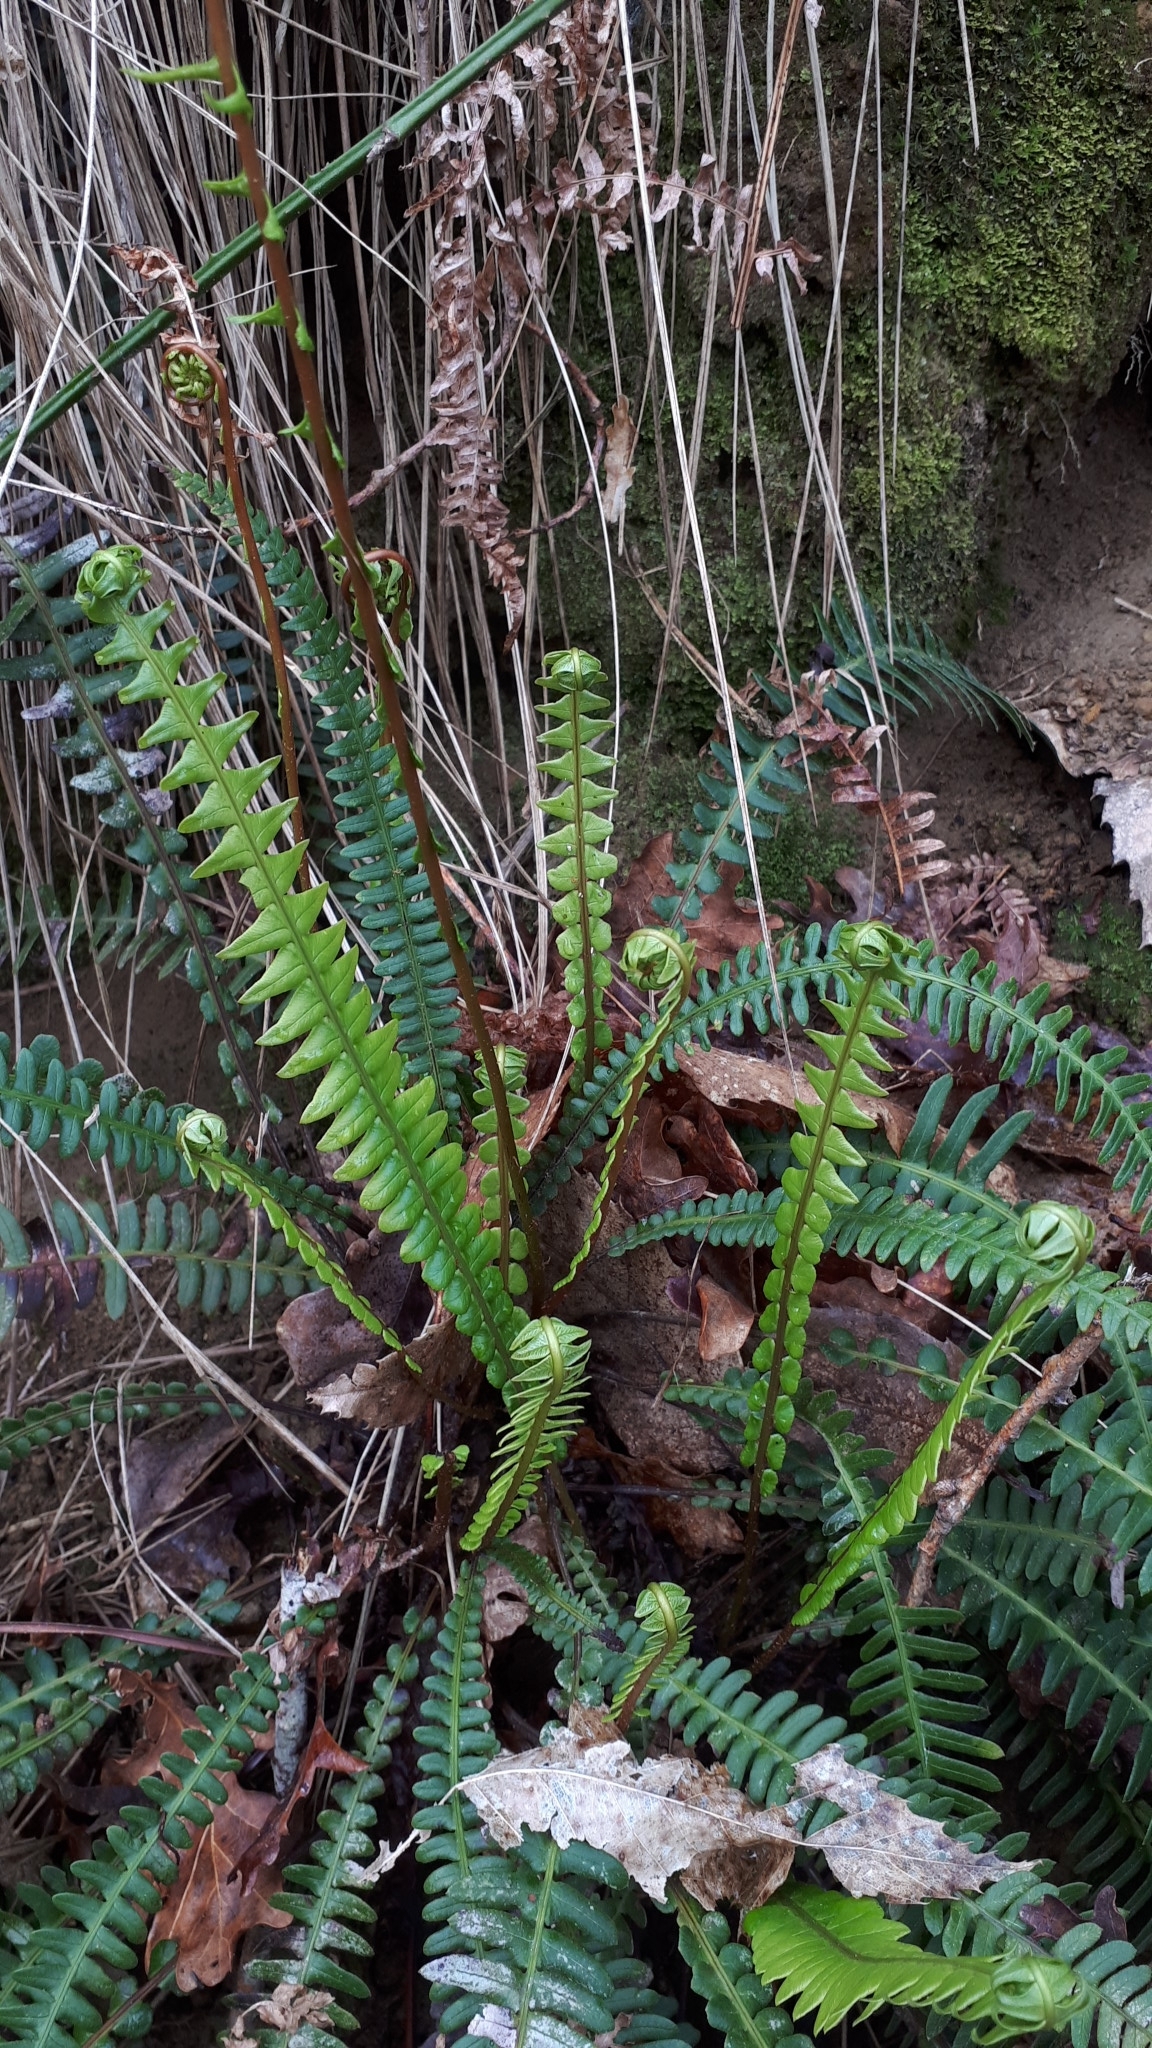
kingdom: Plantae
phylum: Tracheophyta
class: Polypodiopsida
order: Polypodiales
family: Blechnaceae
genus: Struthiopteris
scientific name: Struthiopteris spicant
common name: Deer fern
